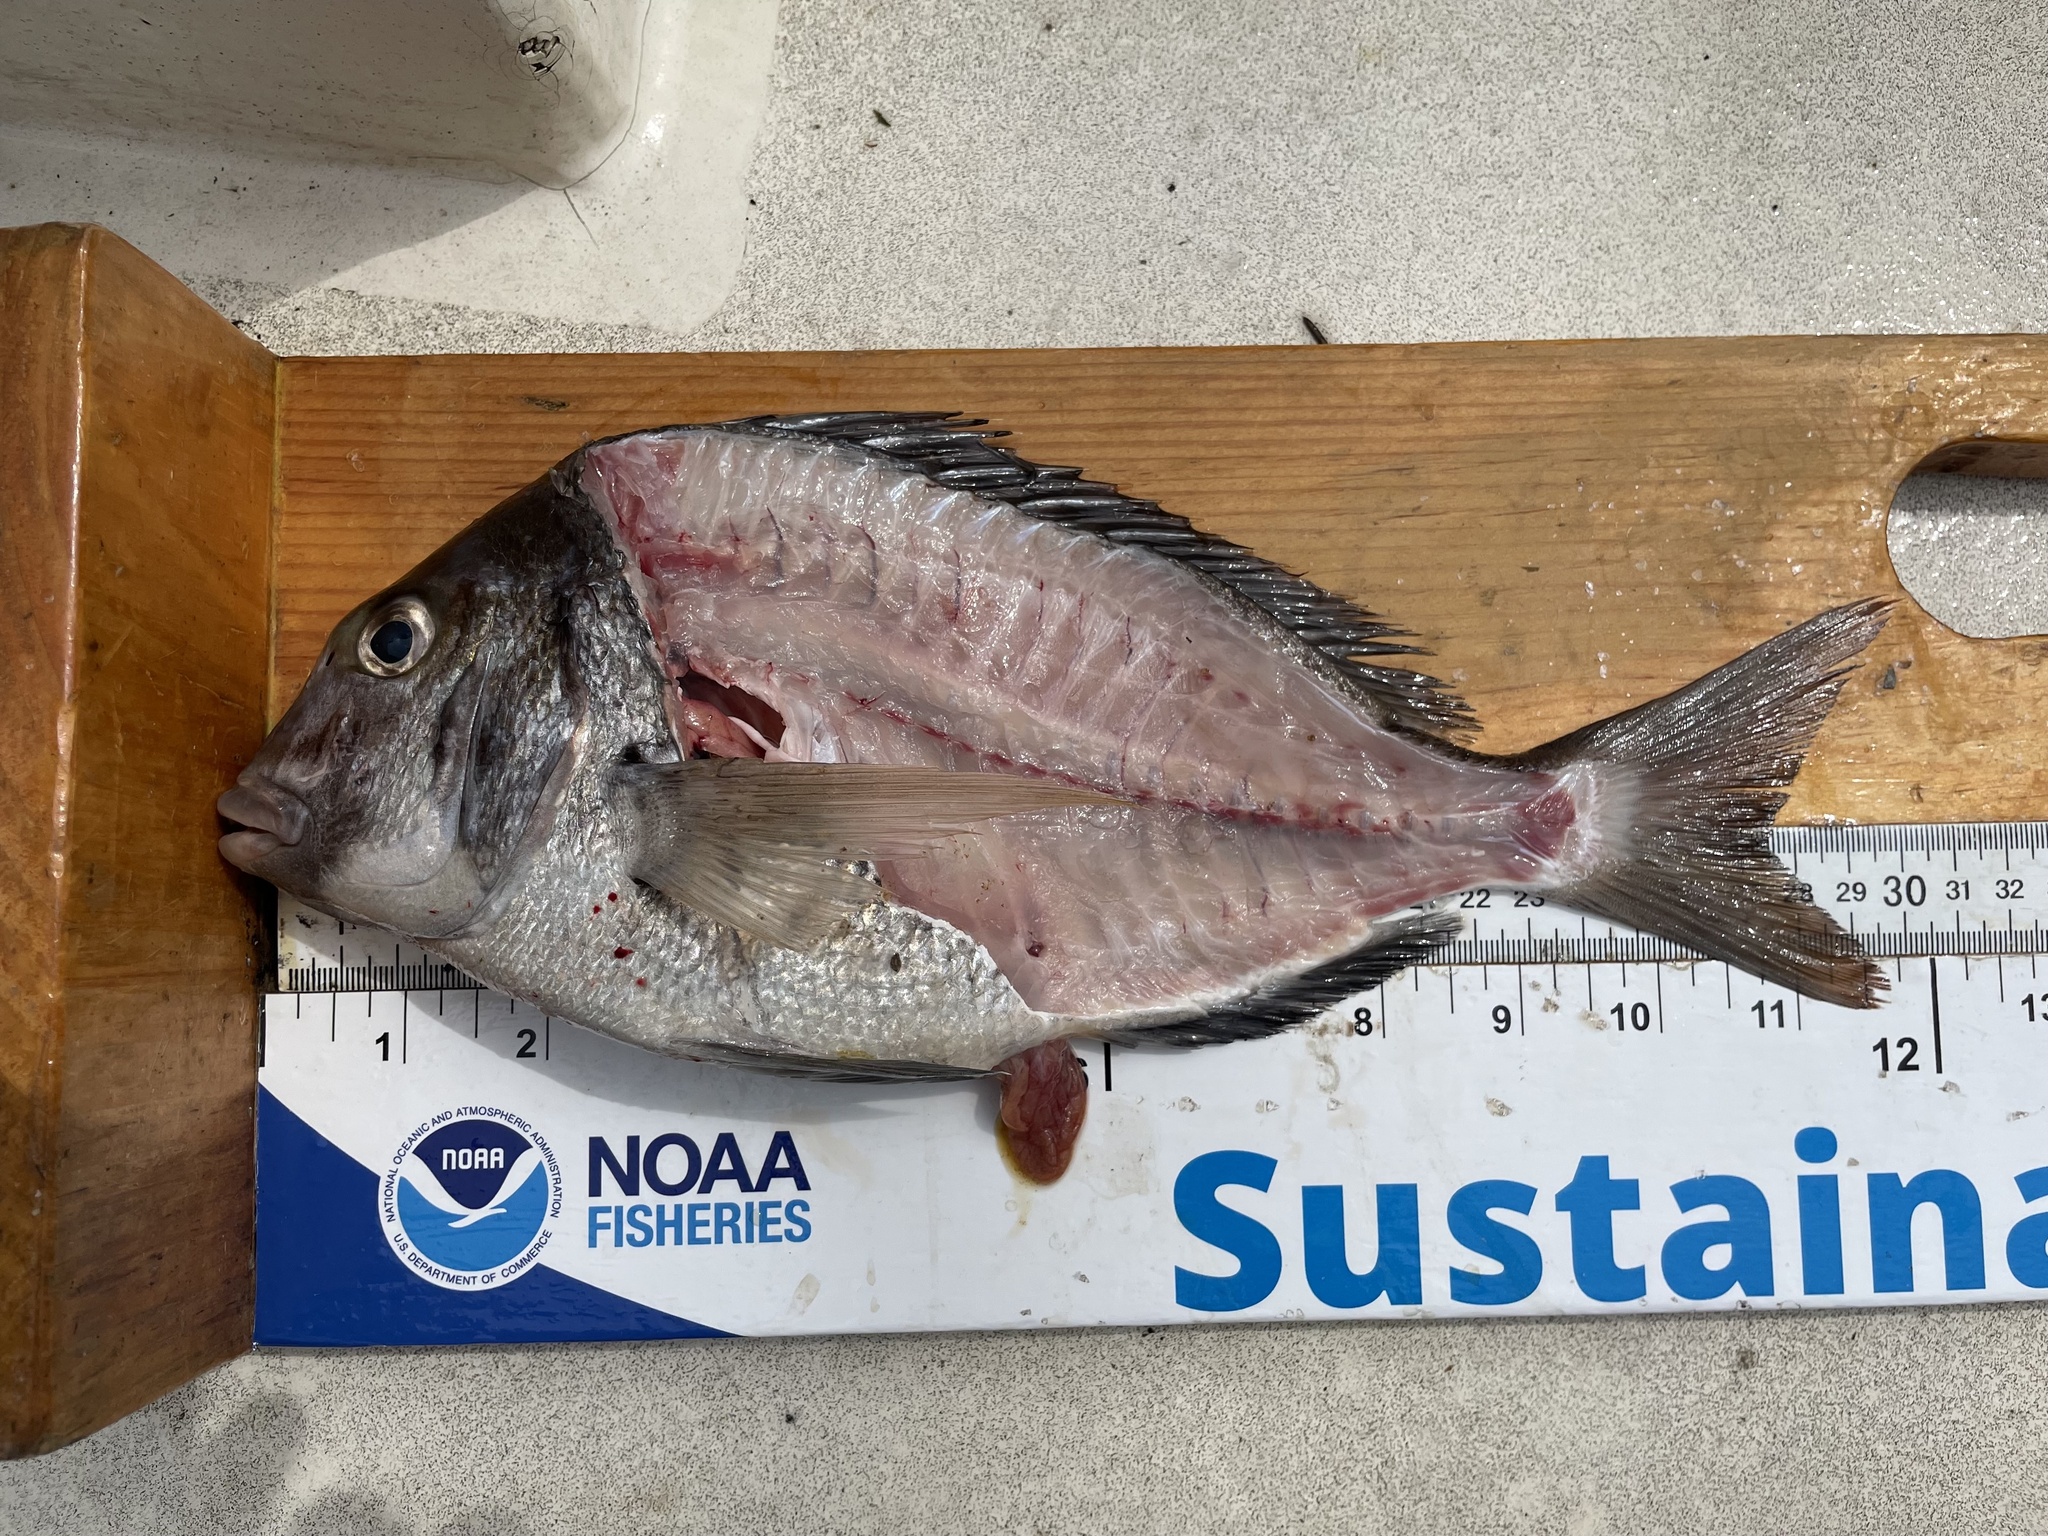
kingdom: Animalia
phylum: Chordata
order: Perciformes
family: Sparidae
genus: Stenotomus
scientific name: Stenotomus chrysops
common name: Scup
